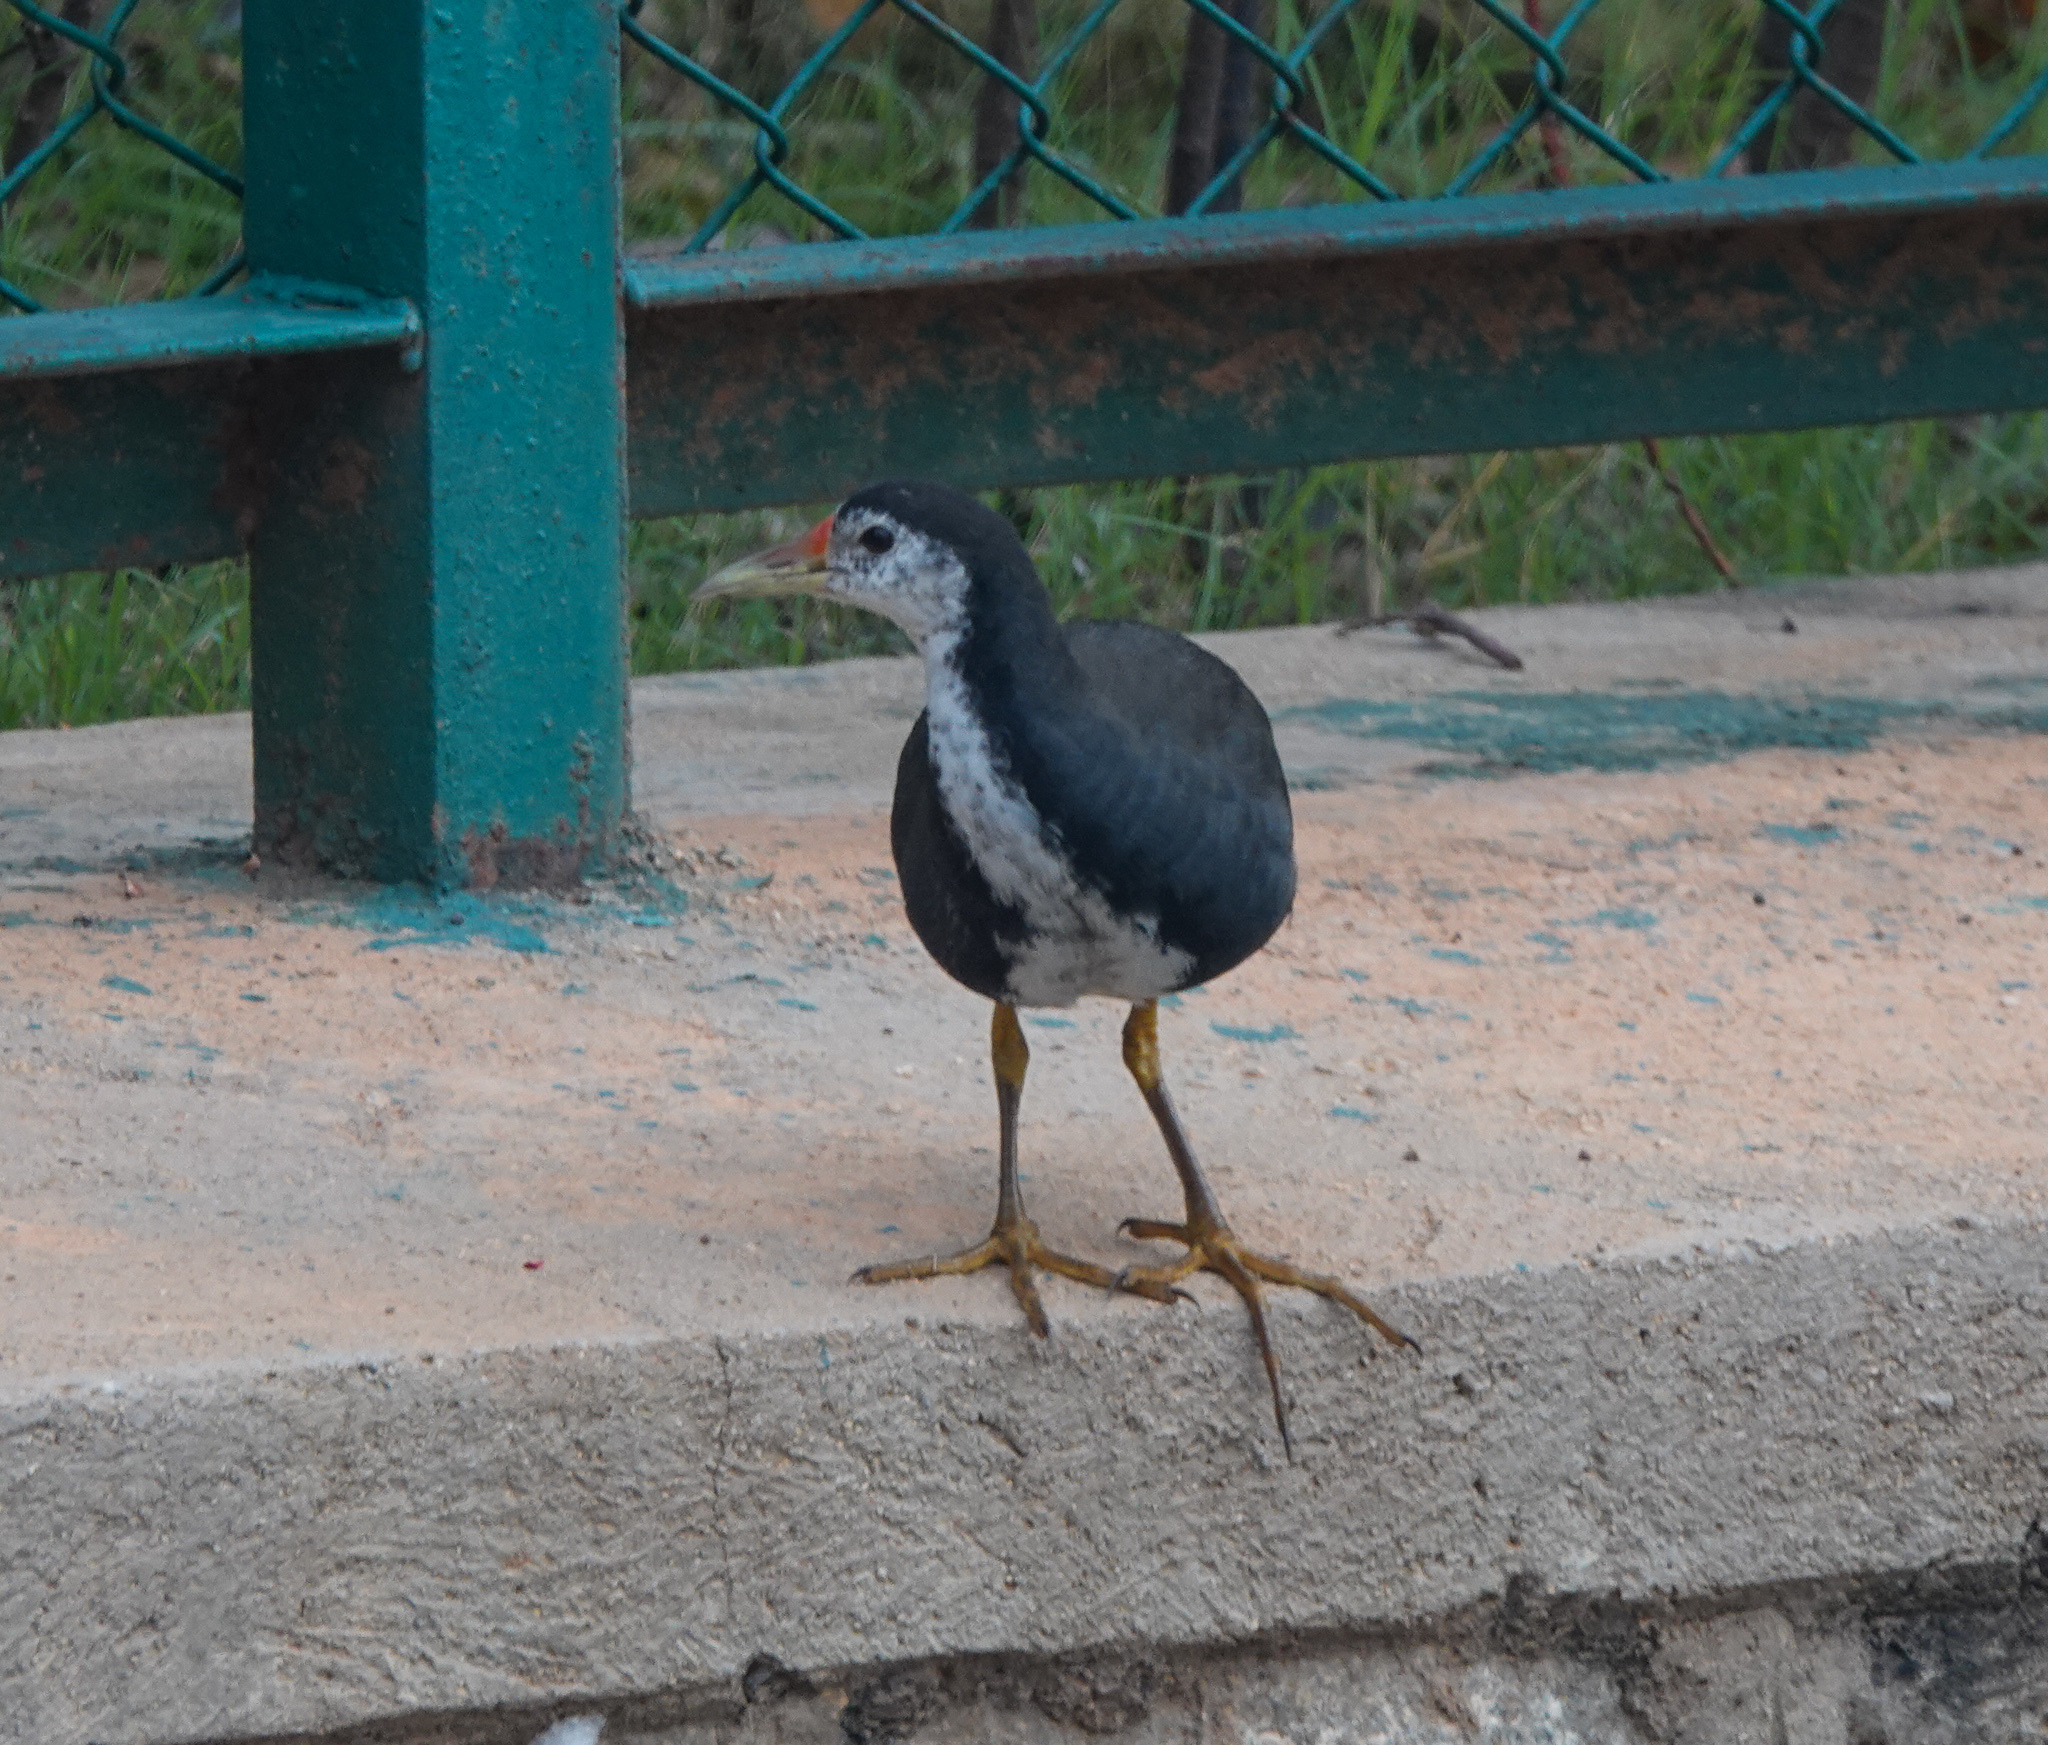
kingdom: Animalia
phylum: Chordata
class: Aves
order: Gruiformes
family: Rallidae
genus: Amaurornis
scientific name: Amaurornis phoenicurus
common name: White-breasted waterhen
